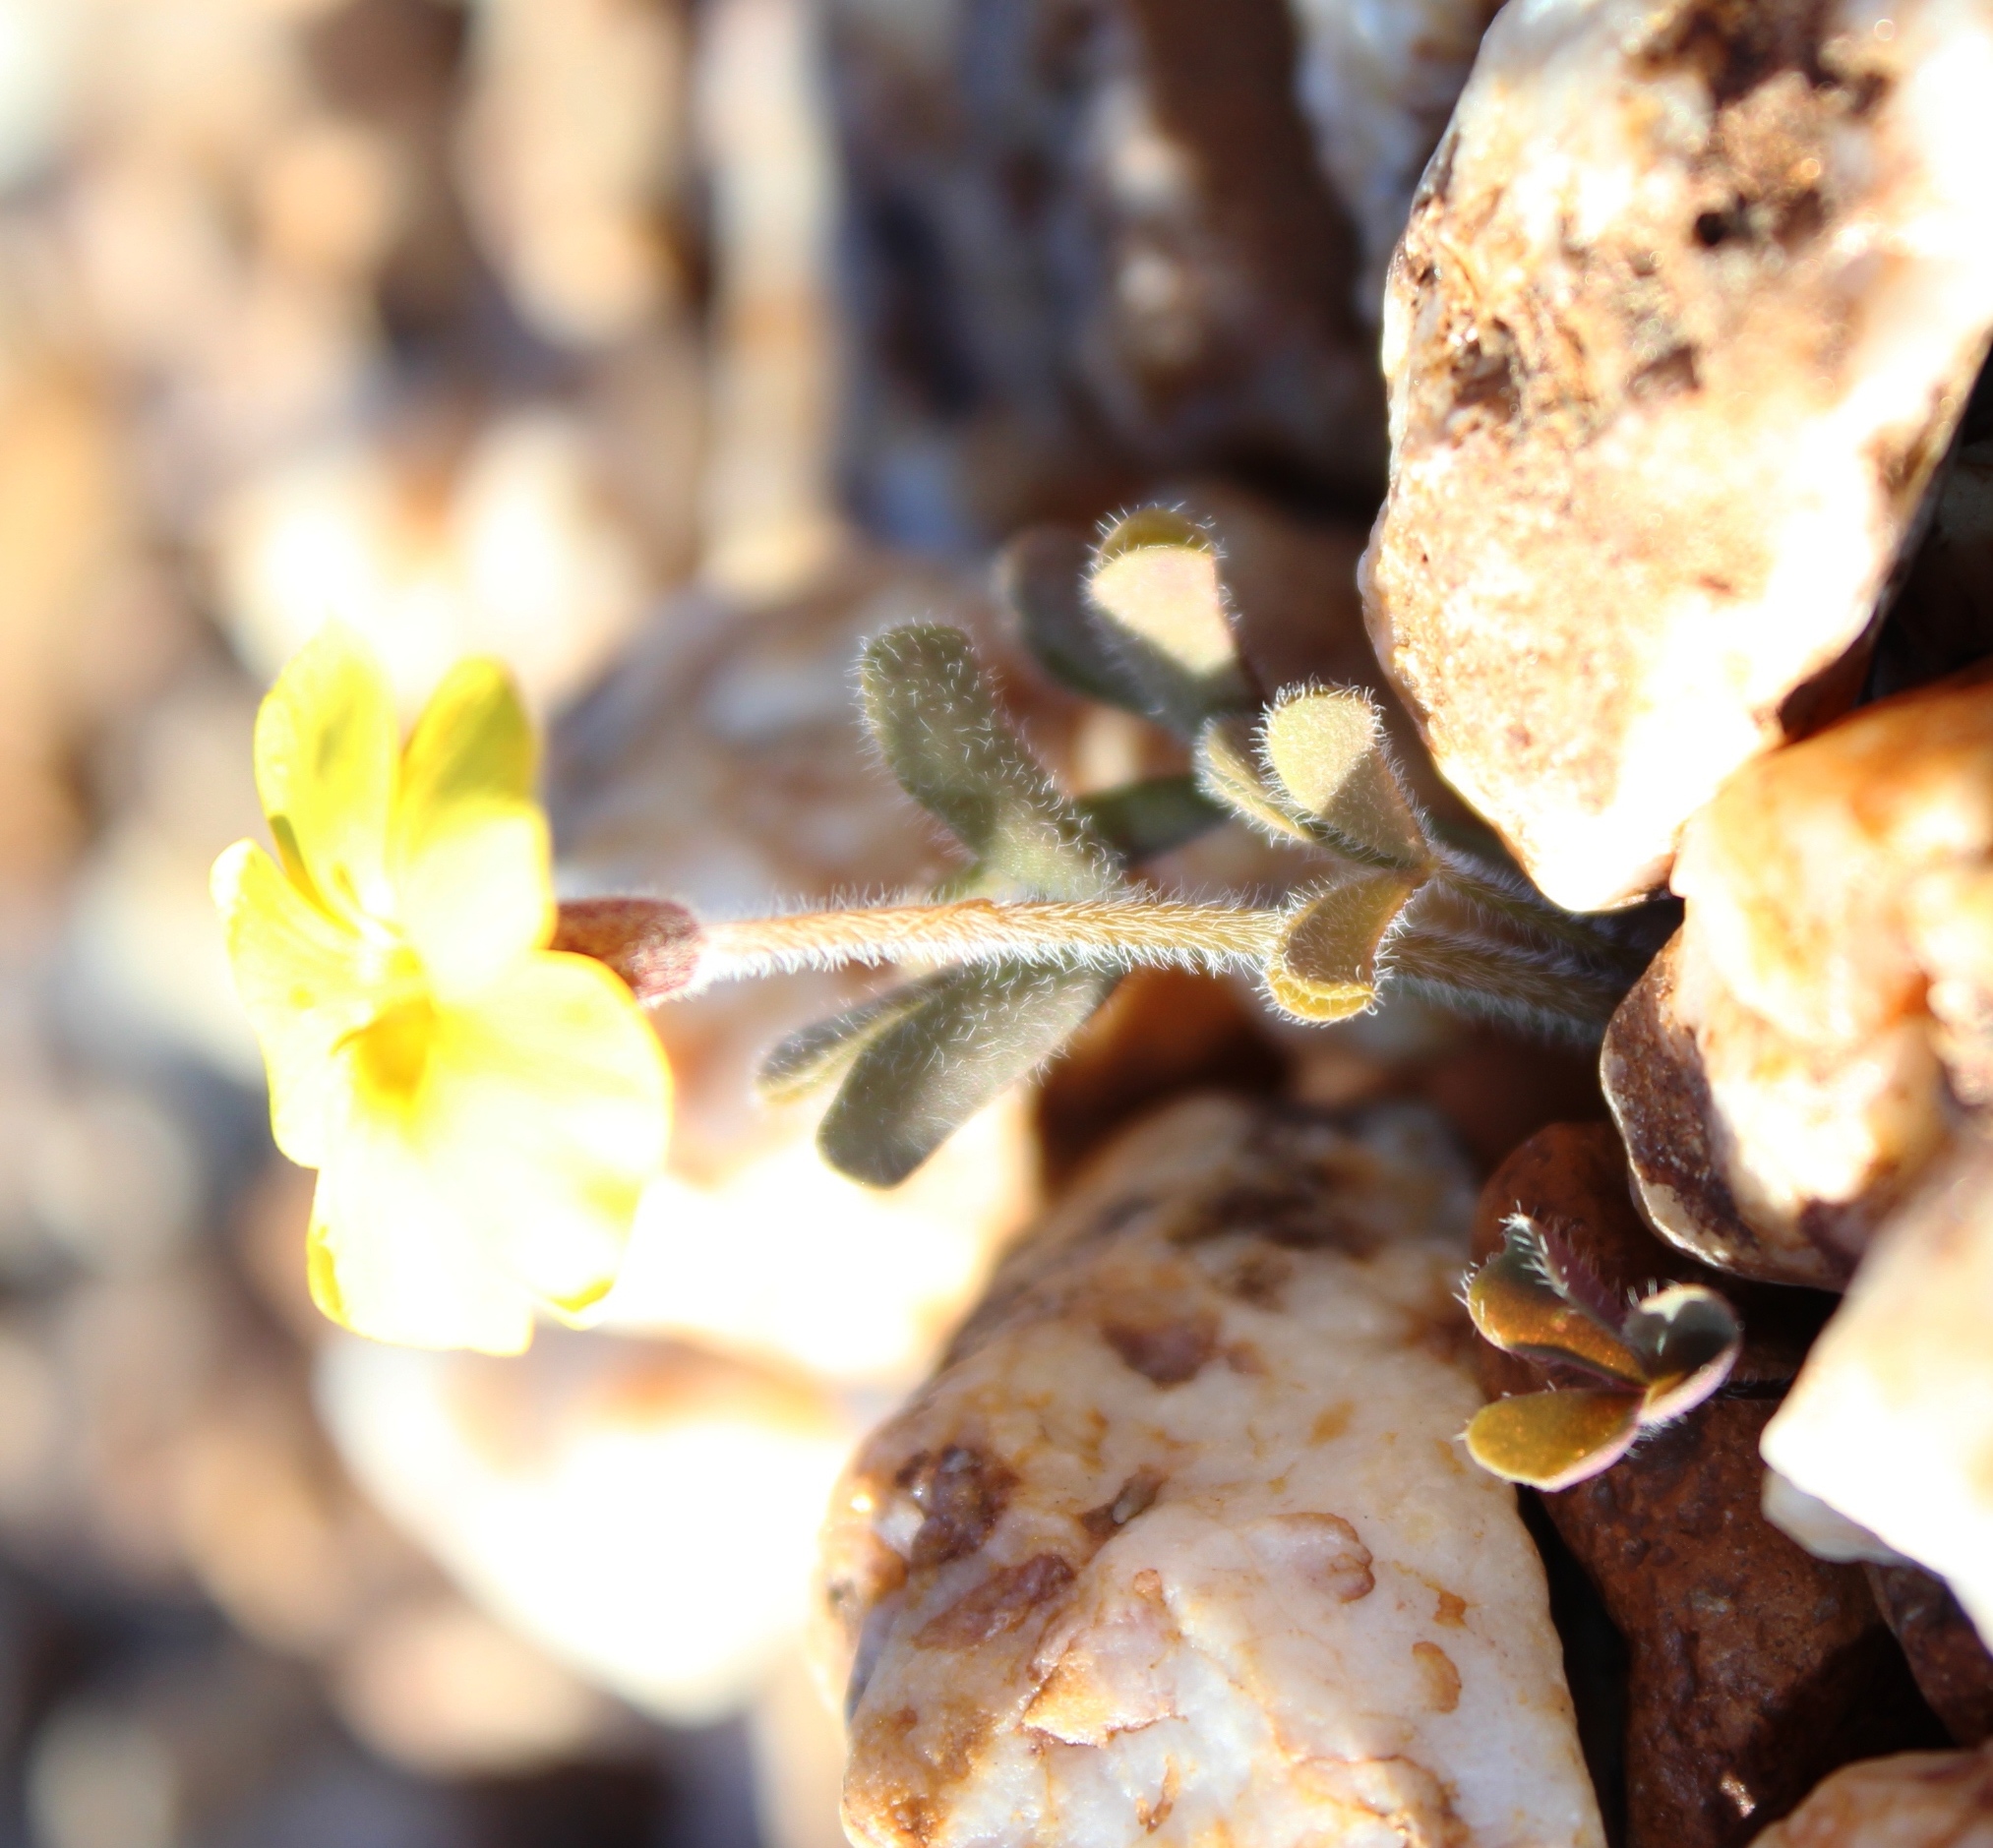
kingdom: Plantae
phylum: Tracheophyta
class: Magnoliopsida
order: Oxalidales
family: Oxalidaceae
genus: Oxalis
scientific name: Oxalis obtusa
